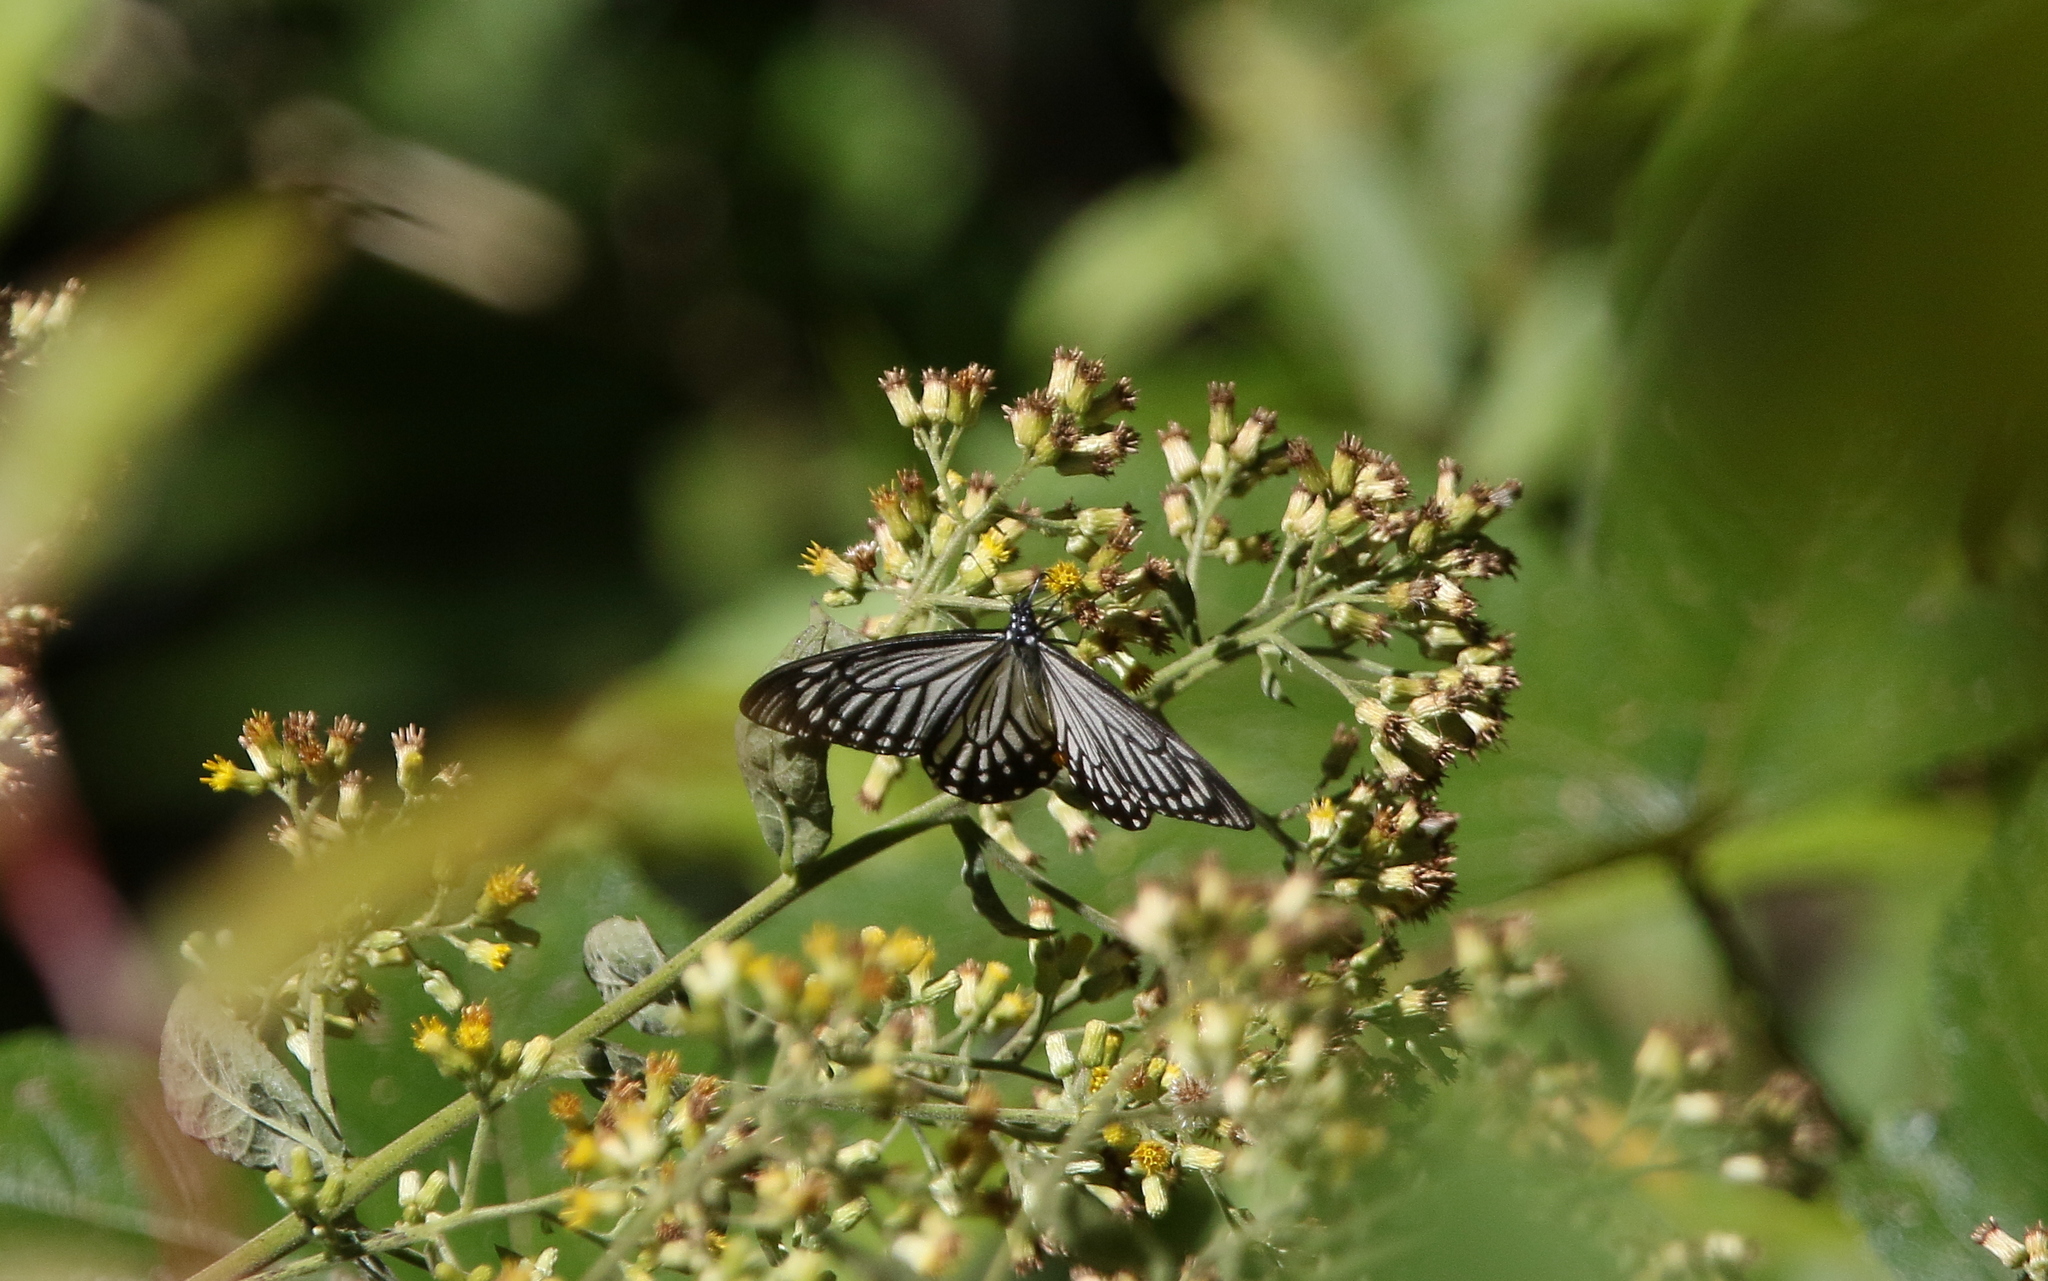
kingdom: Animalia
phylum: Arthropoda
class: Insecta
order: Lepidoptera
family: Papilionidae
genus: Papilio
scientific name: Papilio epycides
